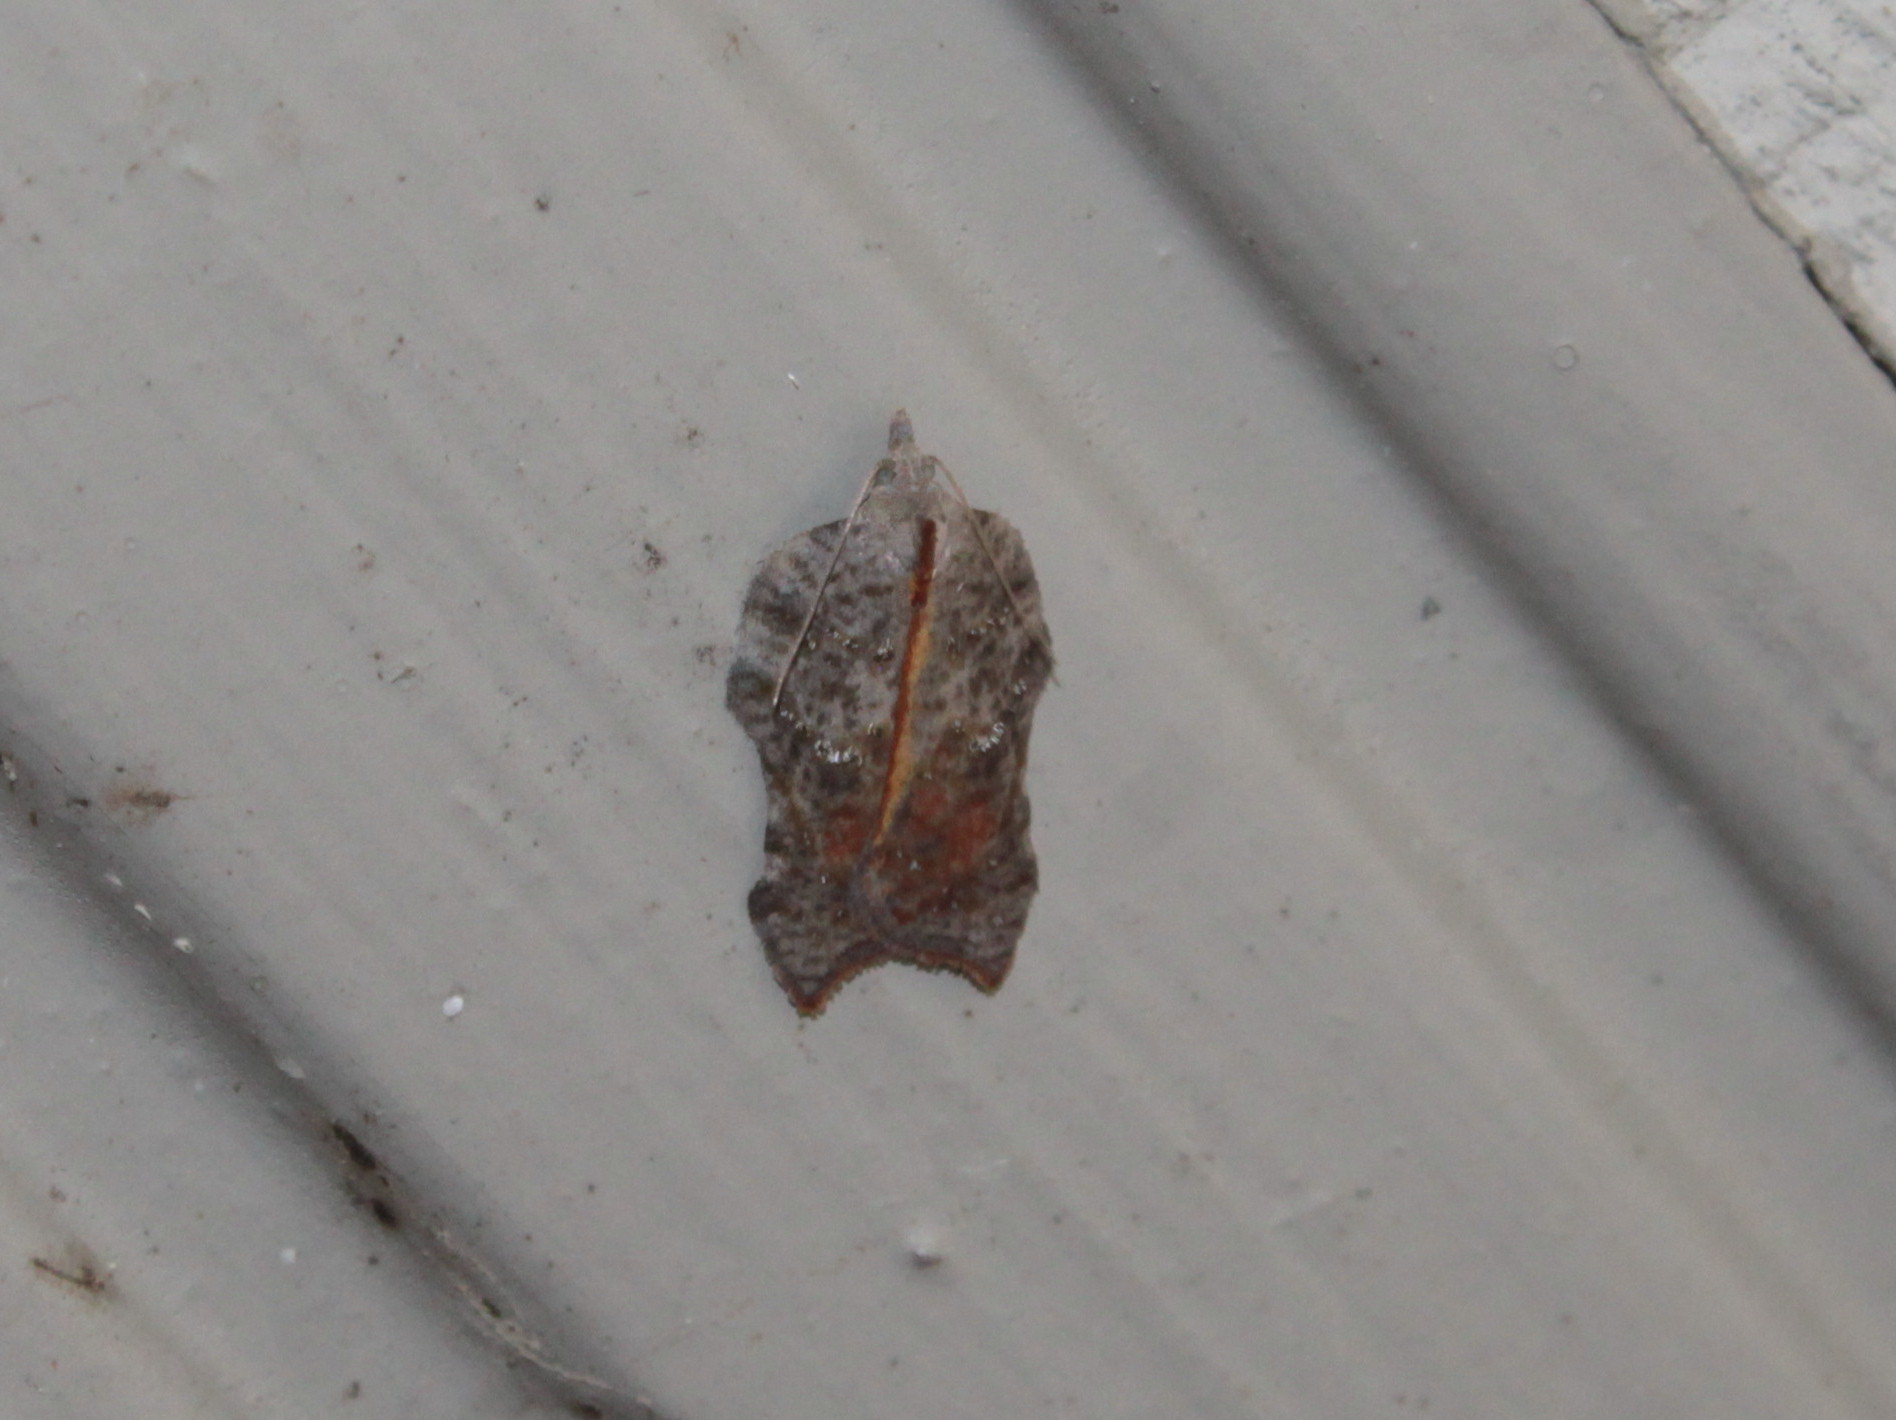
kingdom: Animalia
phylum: Arthropoda
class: Insecta
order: Lepidoptera
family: Tortricidae
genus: Acleris
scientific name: Acleris effractana
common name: Hook-winged tortrix moth
